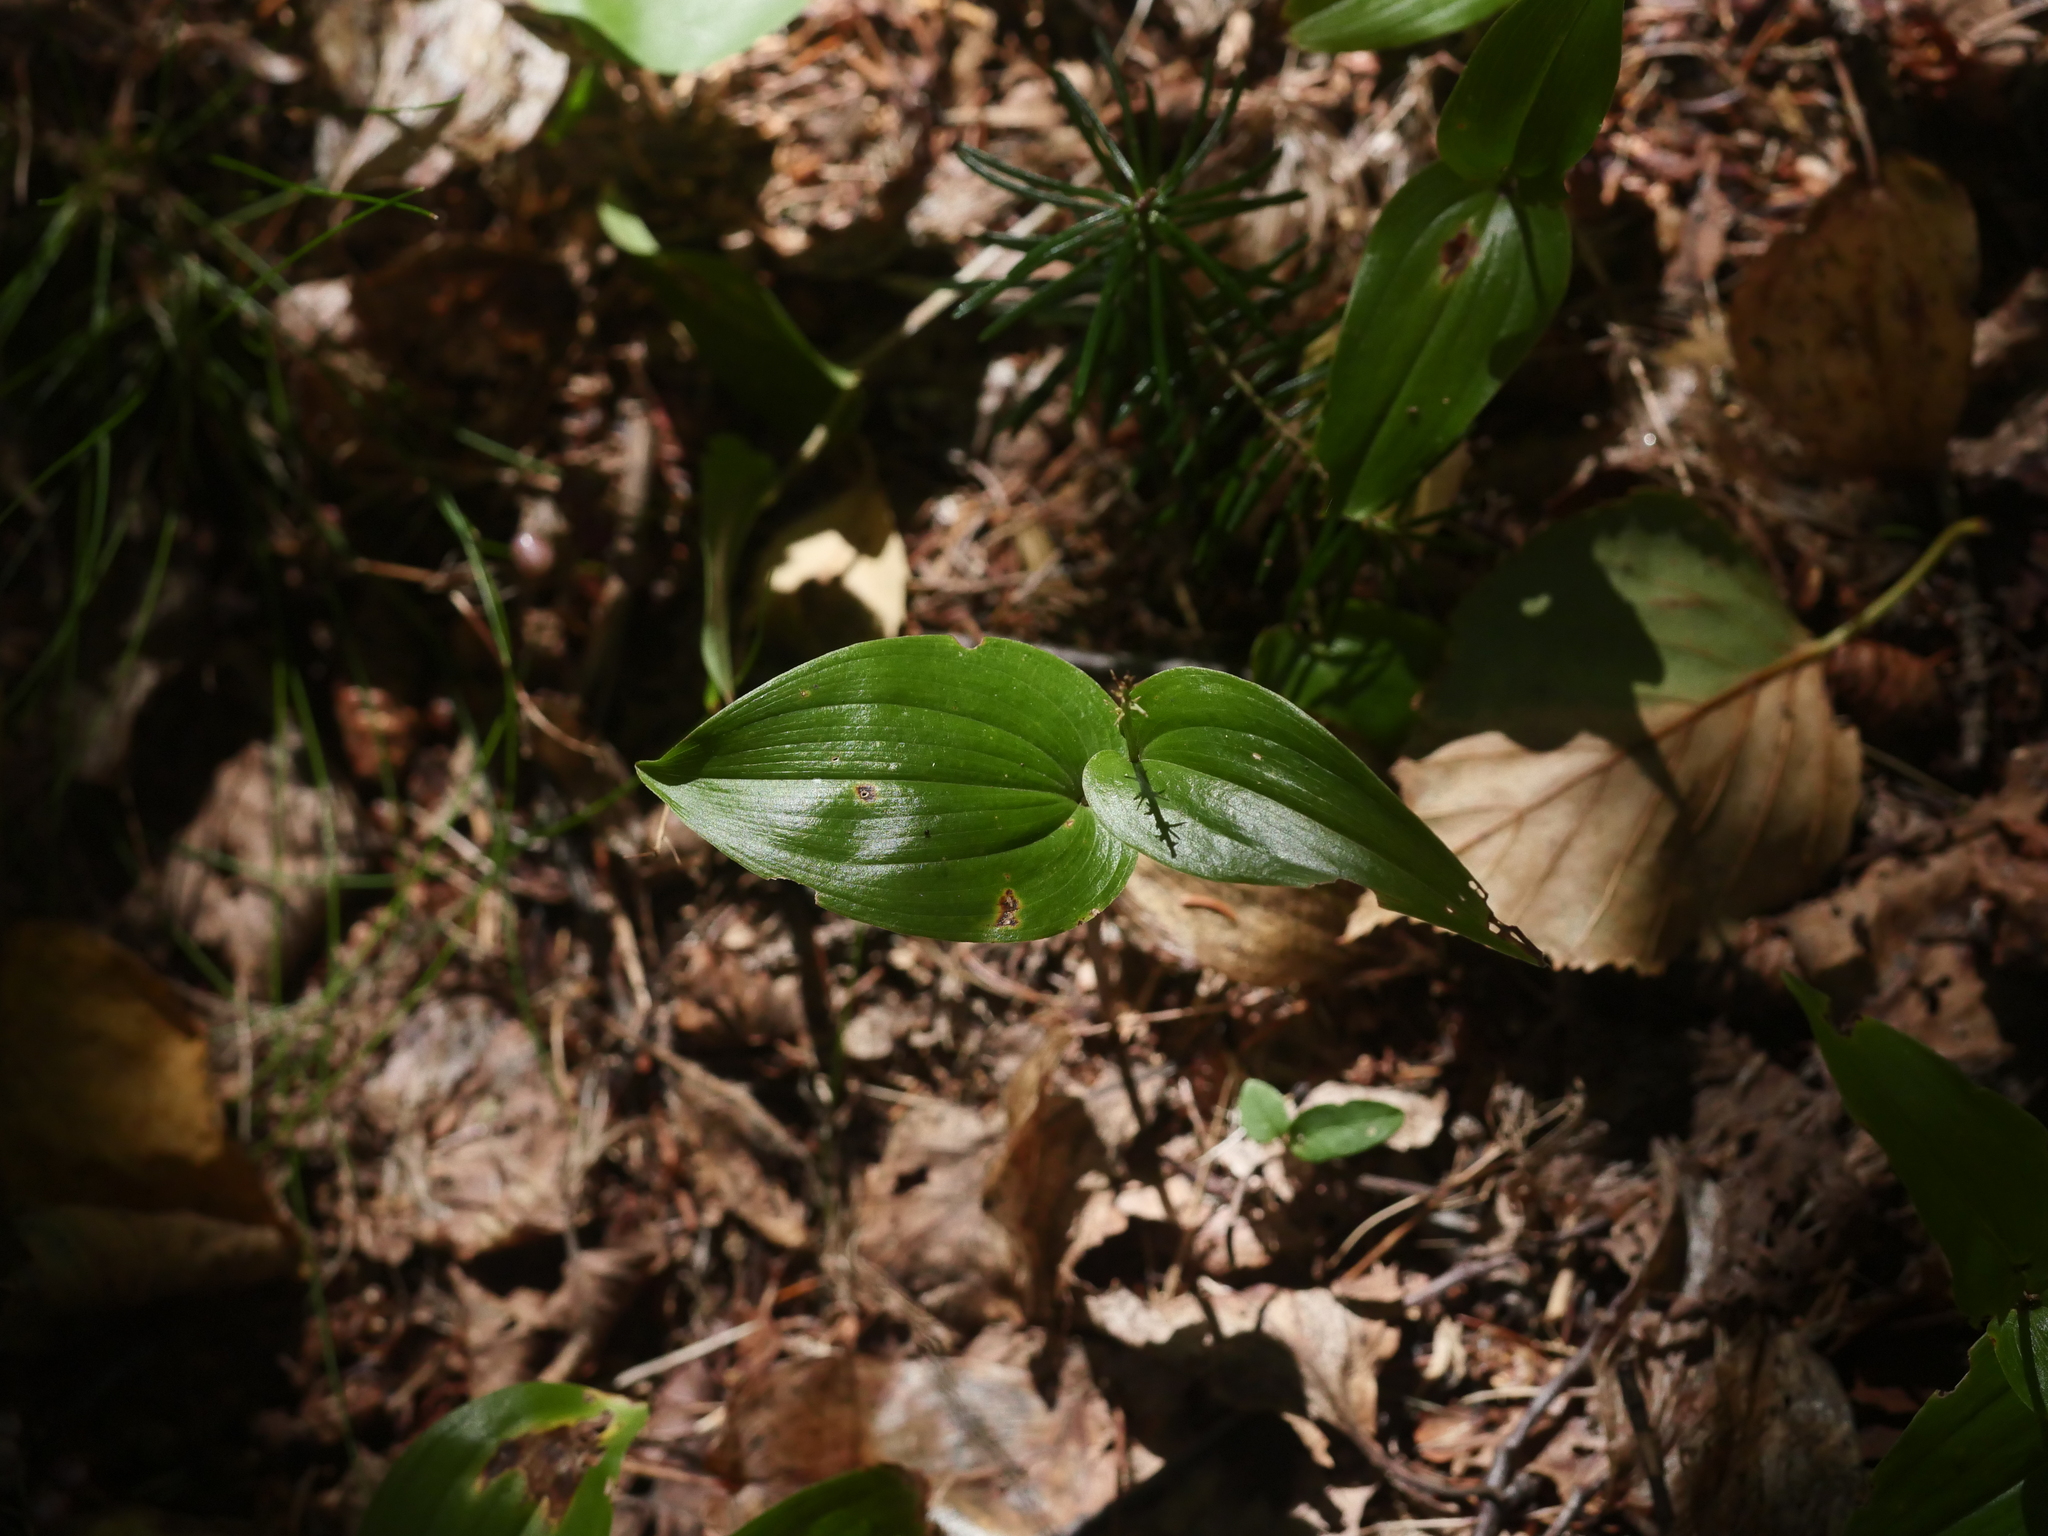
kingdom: Plantae
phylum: Tracheophyta
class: Liliopsida
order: Asparagales
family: Asparagaceae
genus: Maianthemum
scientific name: Maianthemum canadense
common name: False lily-of-the-valley
